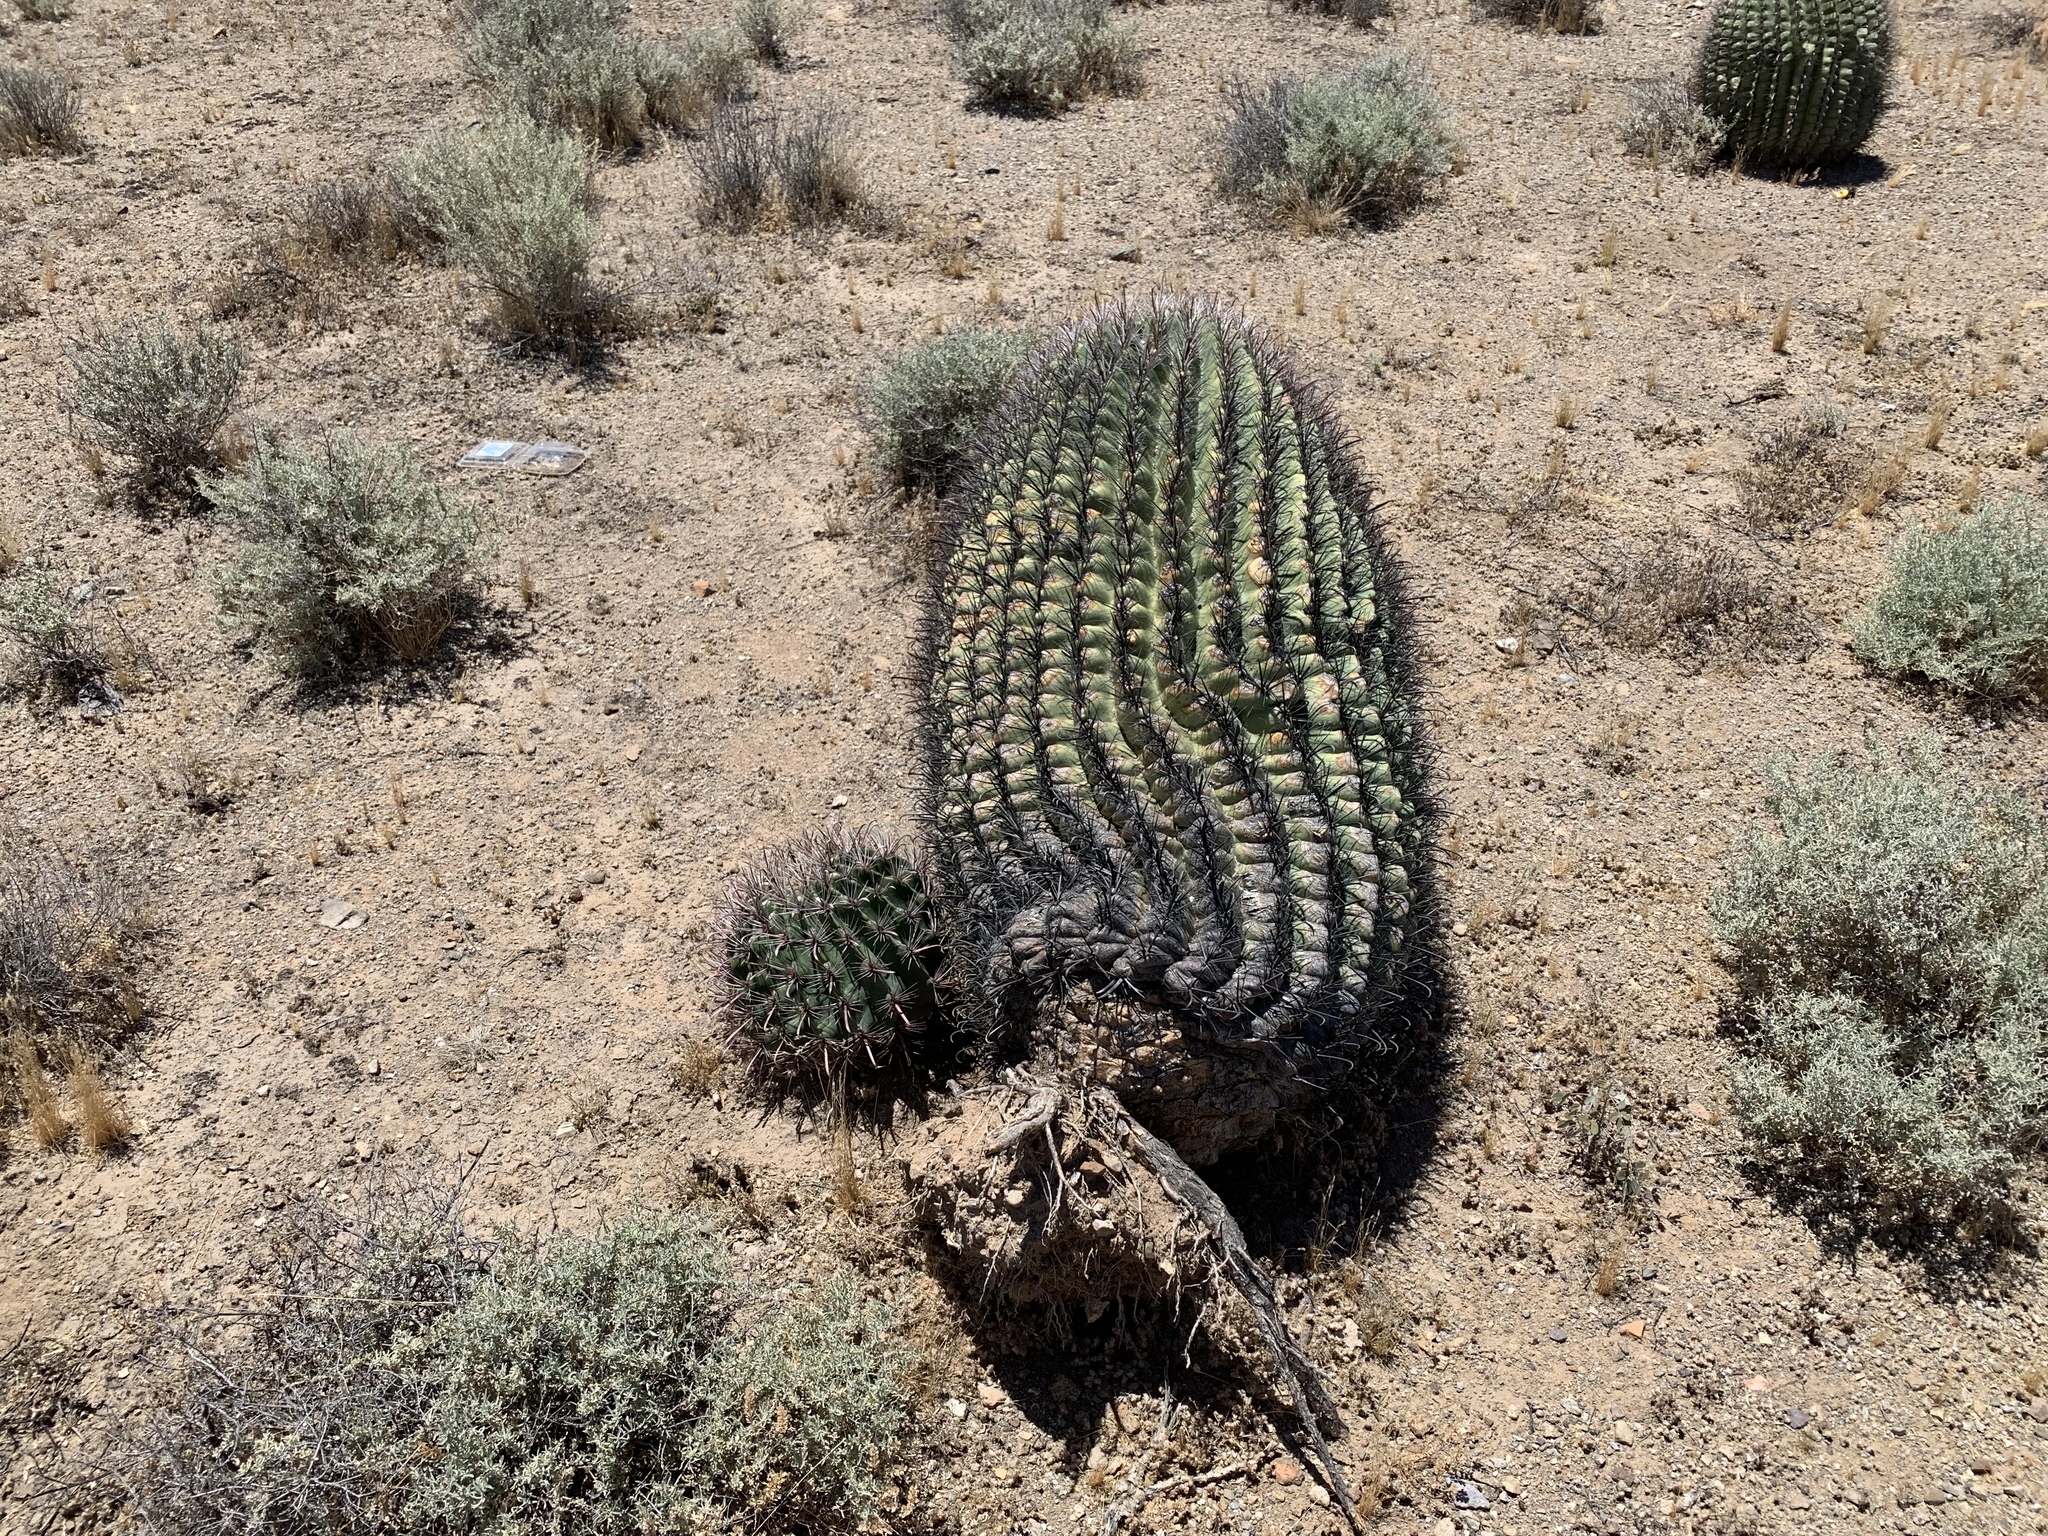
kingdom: Plantae
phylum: Tracheophyta
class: Magnoliopsida
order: Caryophyllales
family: Cactaceae
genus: Ferocactus
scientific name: Ferocactus wislizeni
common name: Candy barrel cactus
